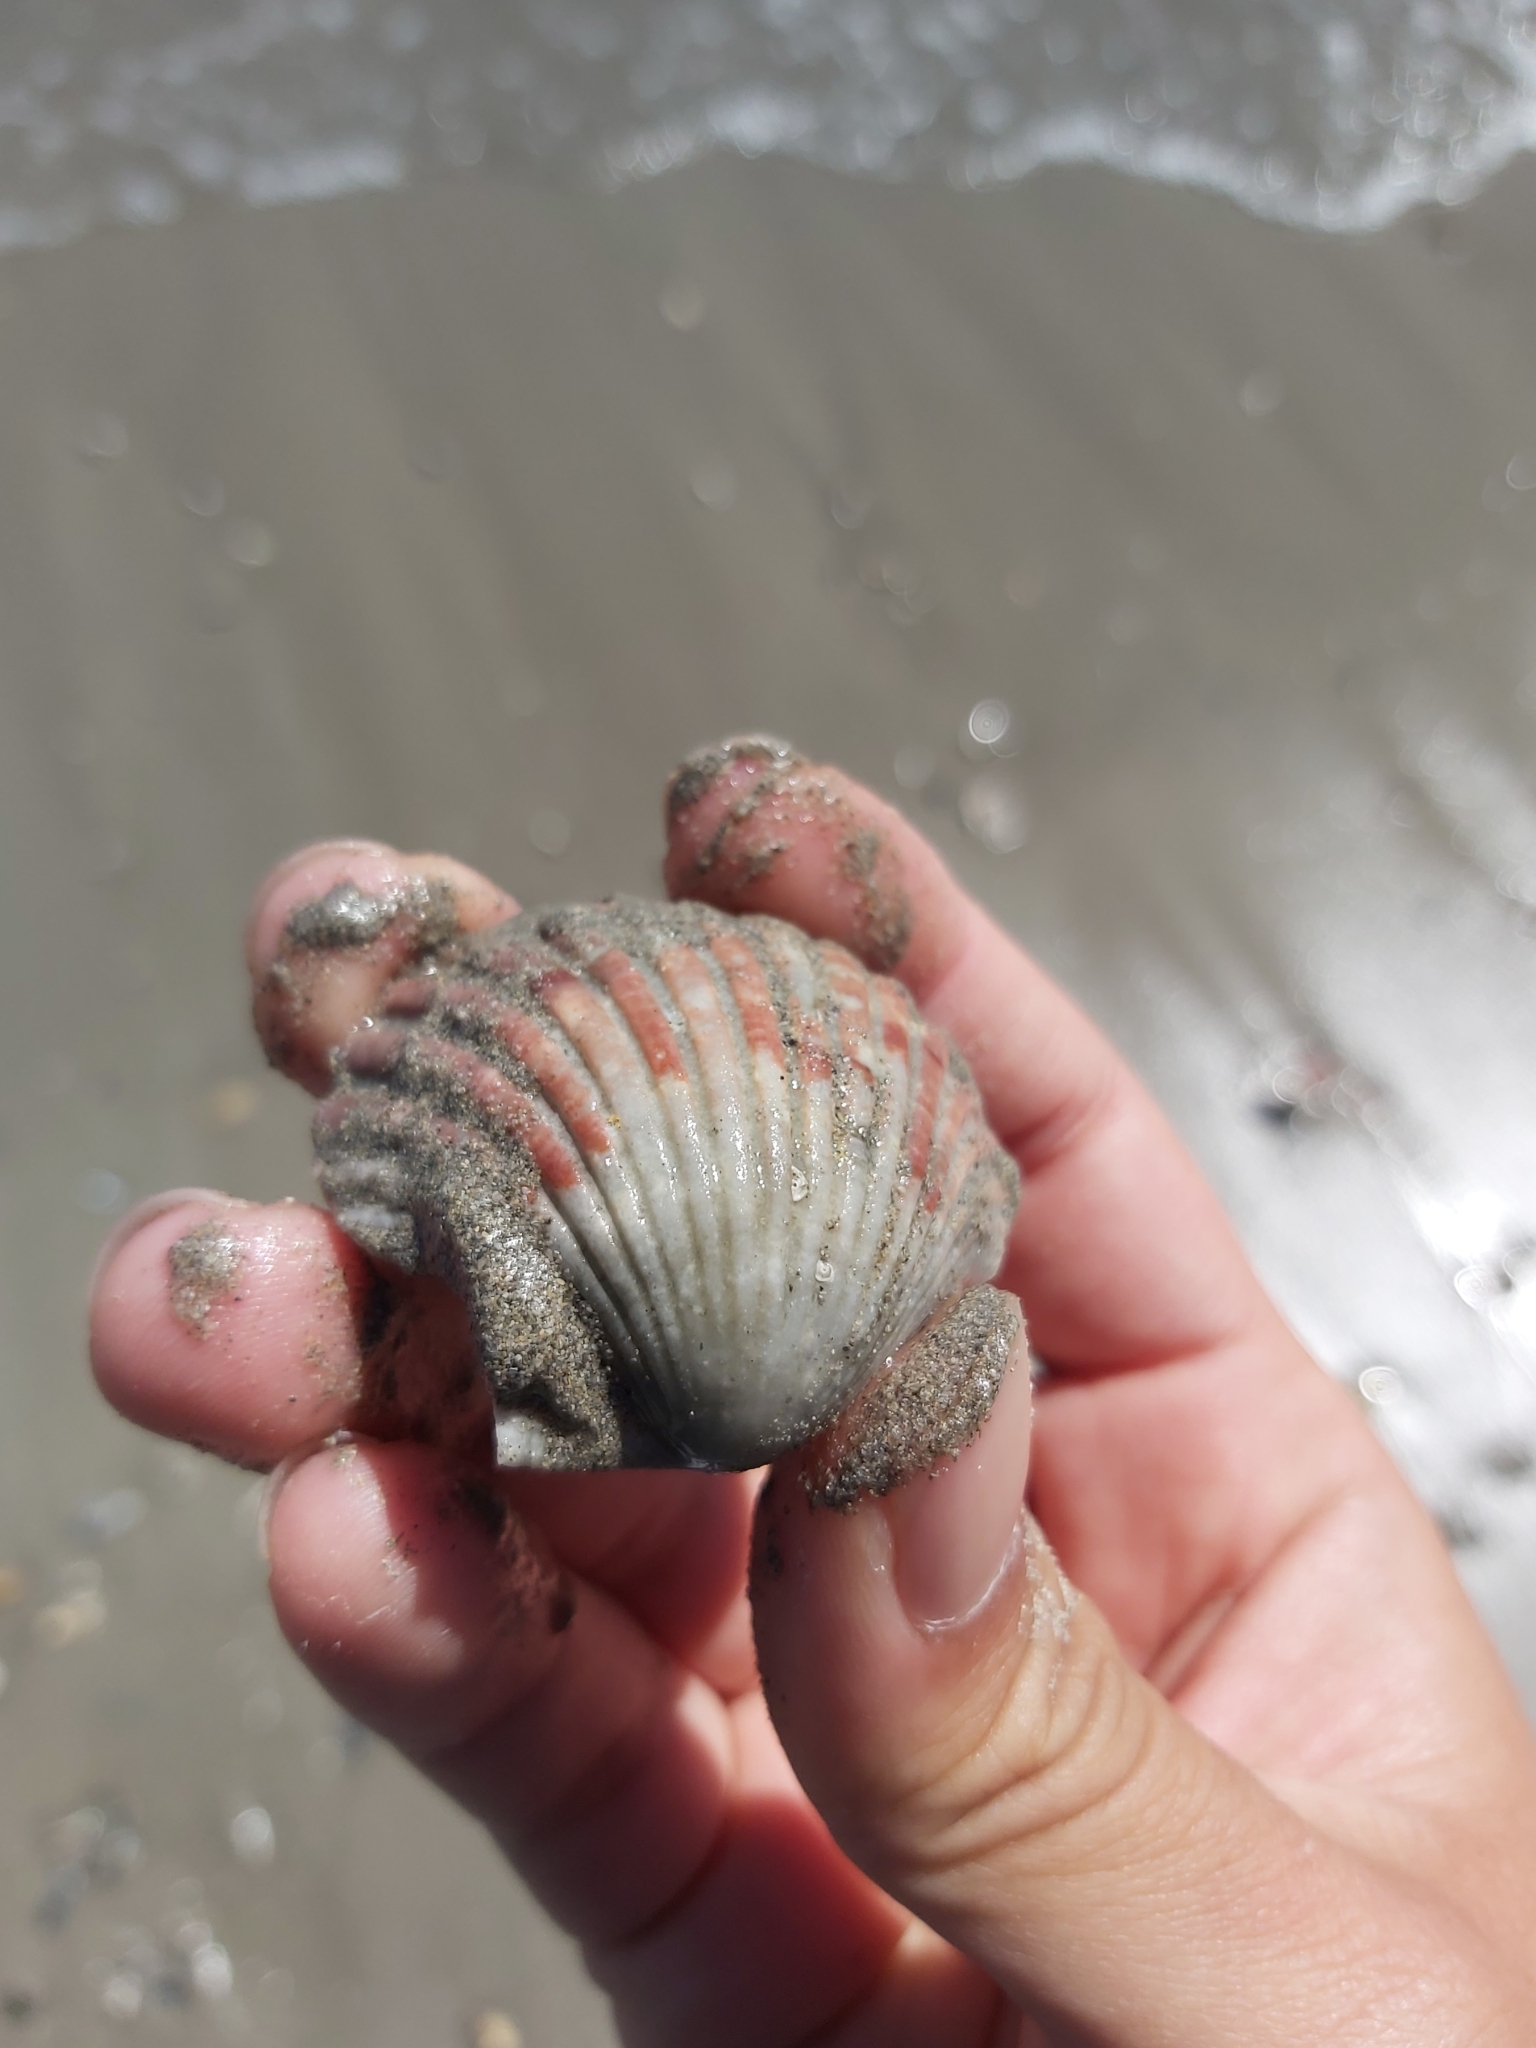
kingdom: Animalia
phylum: Mollusca
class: Bivalvia
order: Pectinida
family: Pectinidae
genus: Pecten
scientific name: Pecten fumatus
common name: Australian scallop
